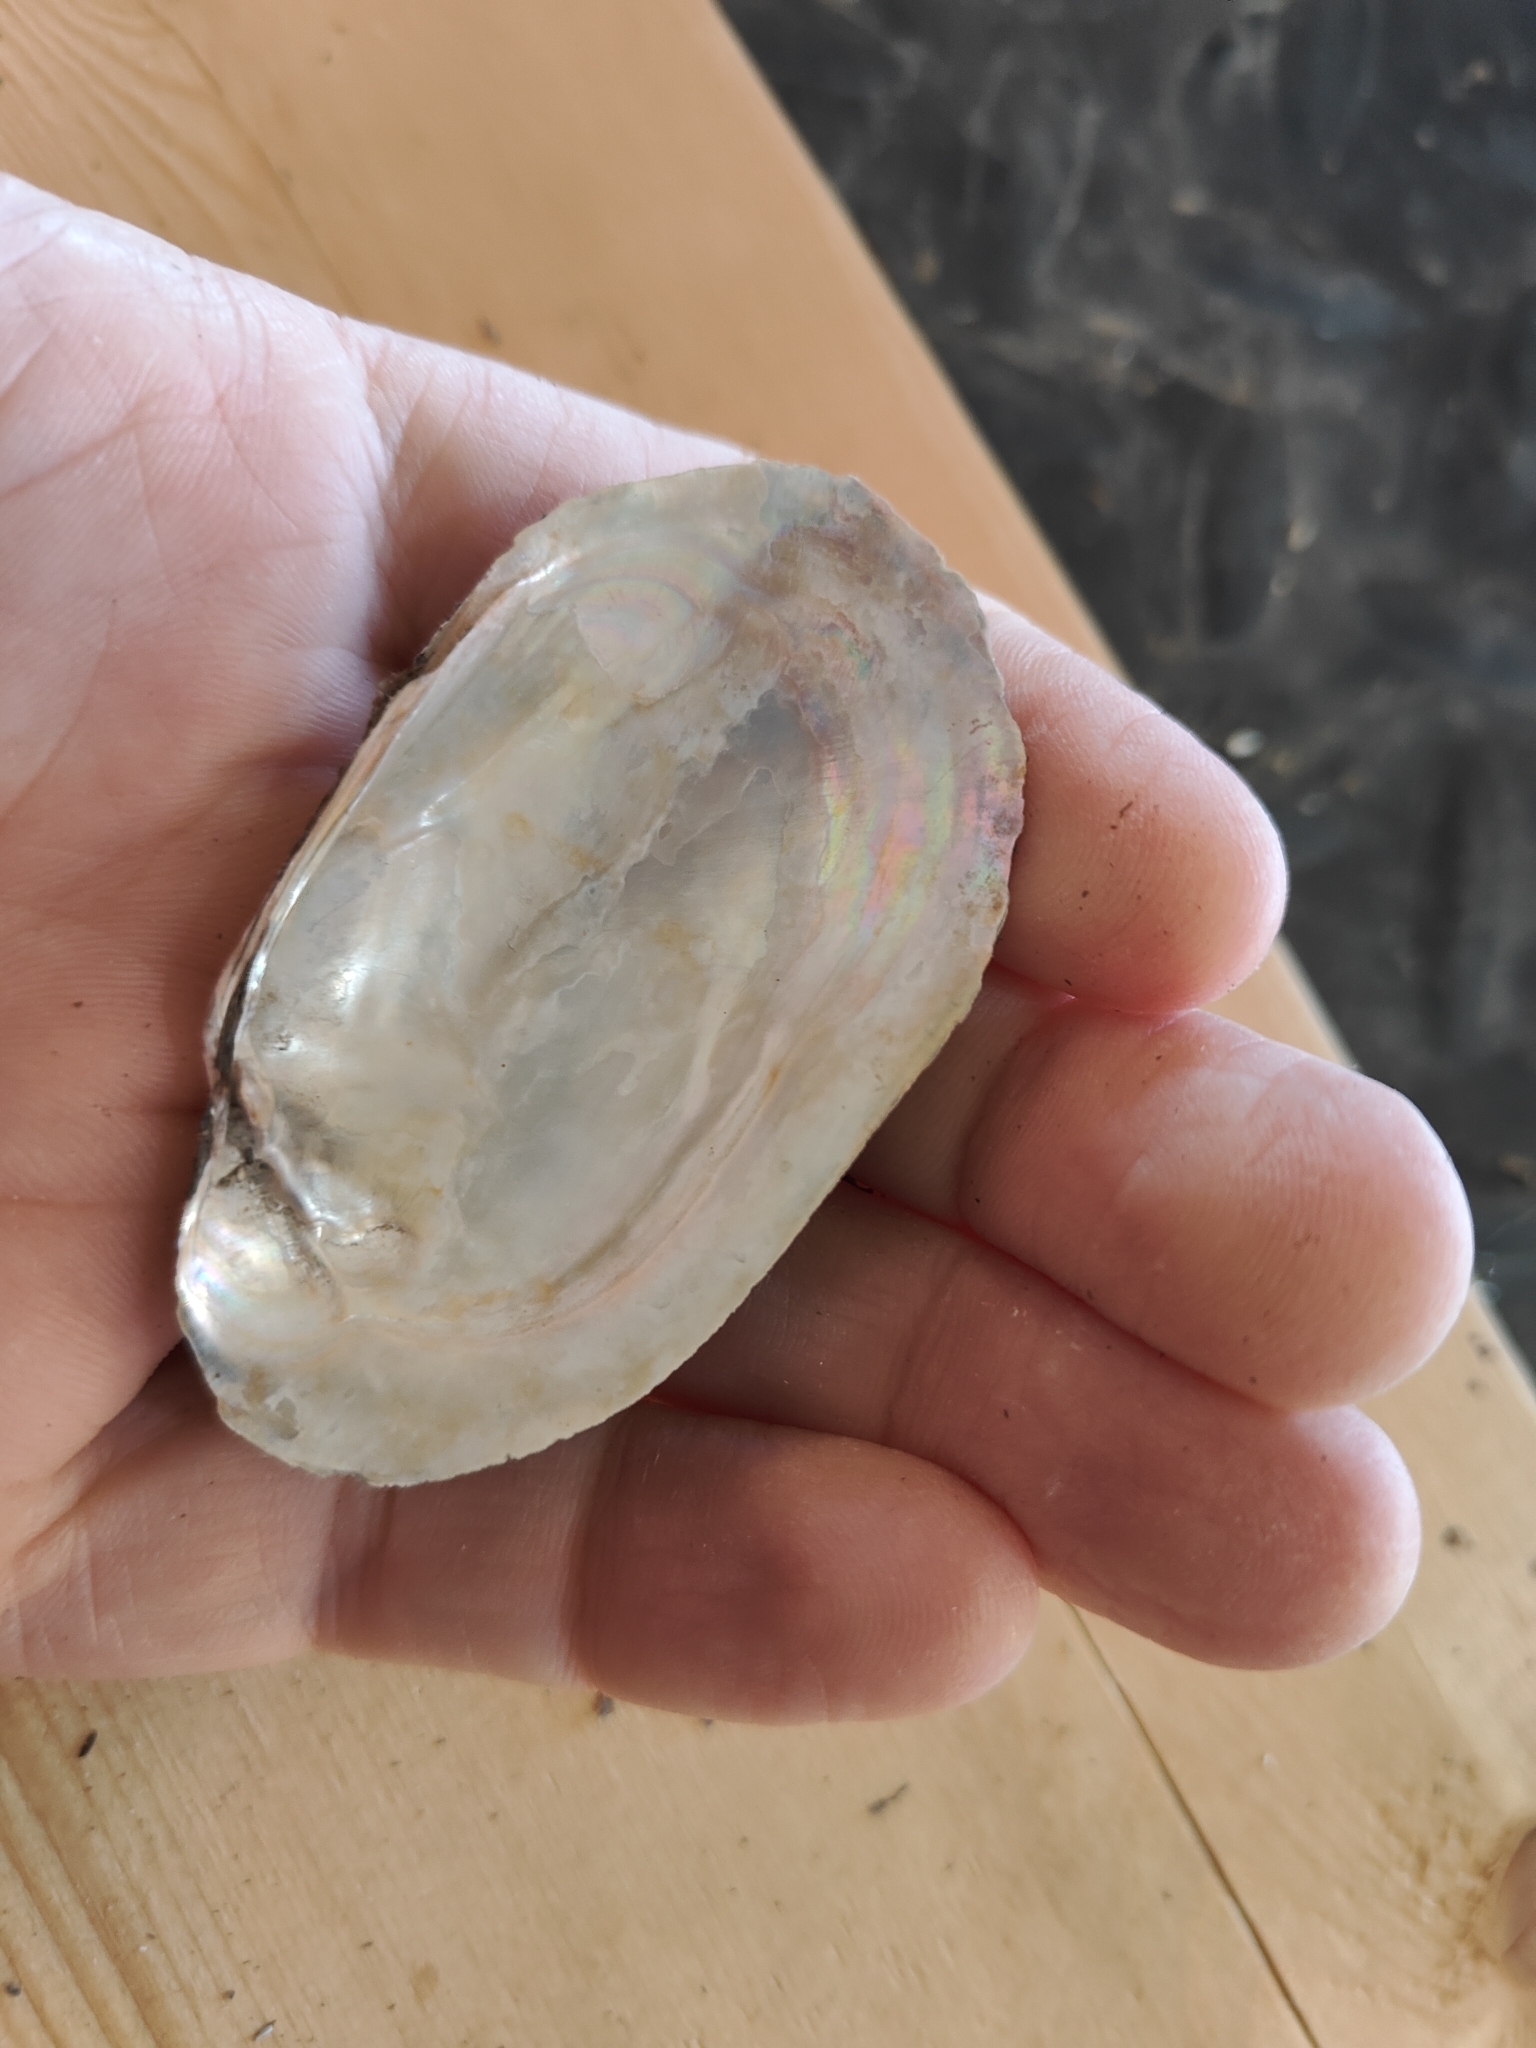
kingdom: Animalia
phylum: Mollusca
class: Bivalvia
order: Unionida
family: Unionidae
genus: Lampsilis
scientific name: Lampsilis siliquoidea
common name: Fatmucket
